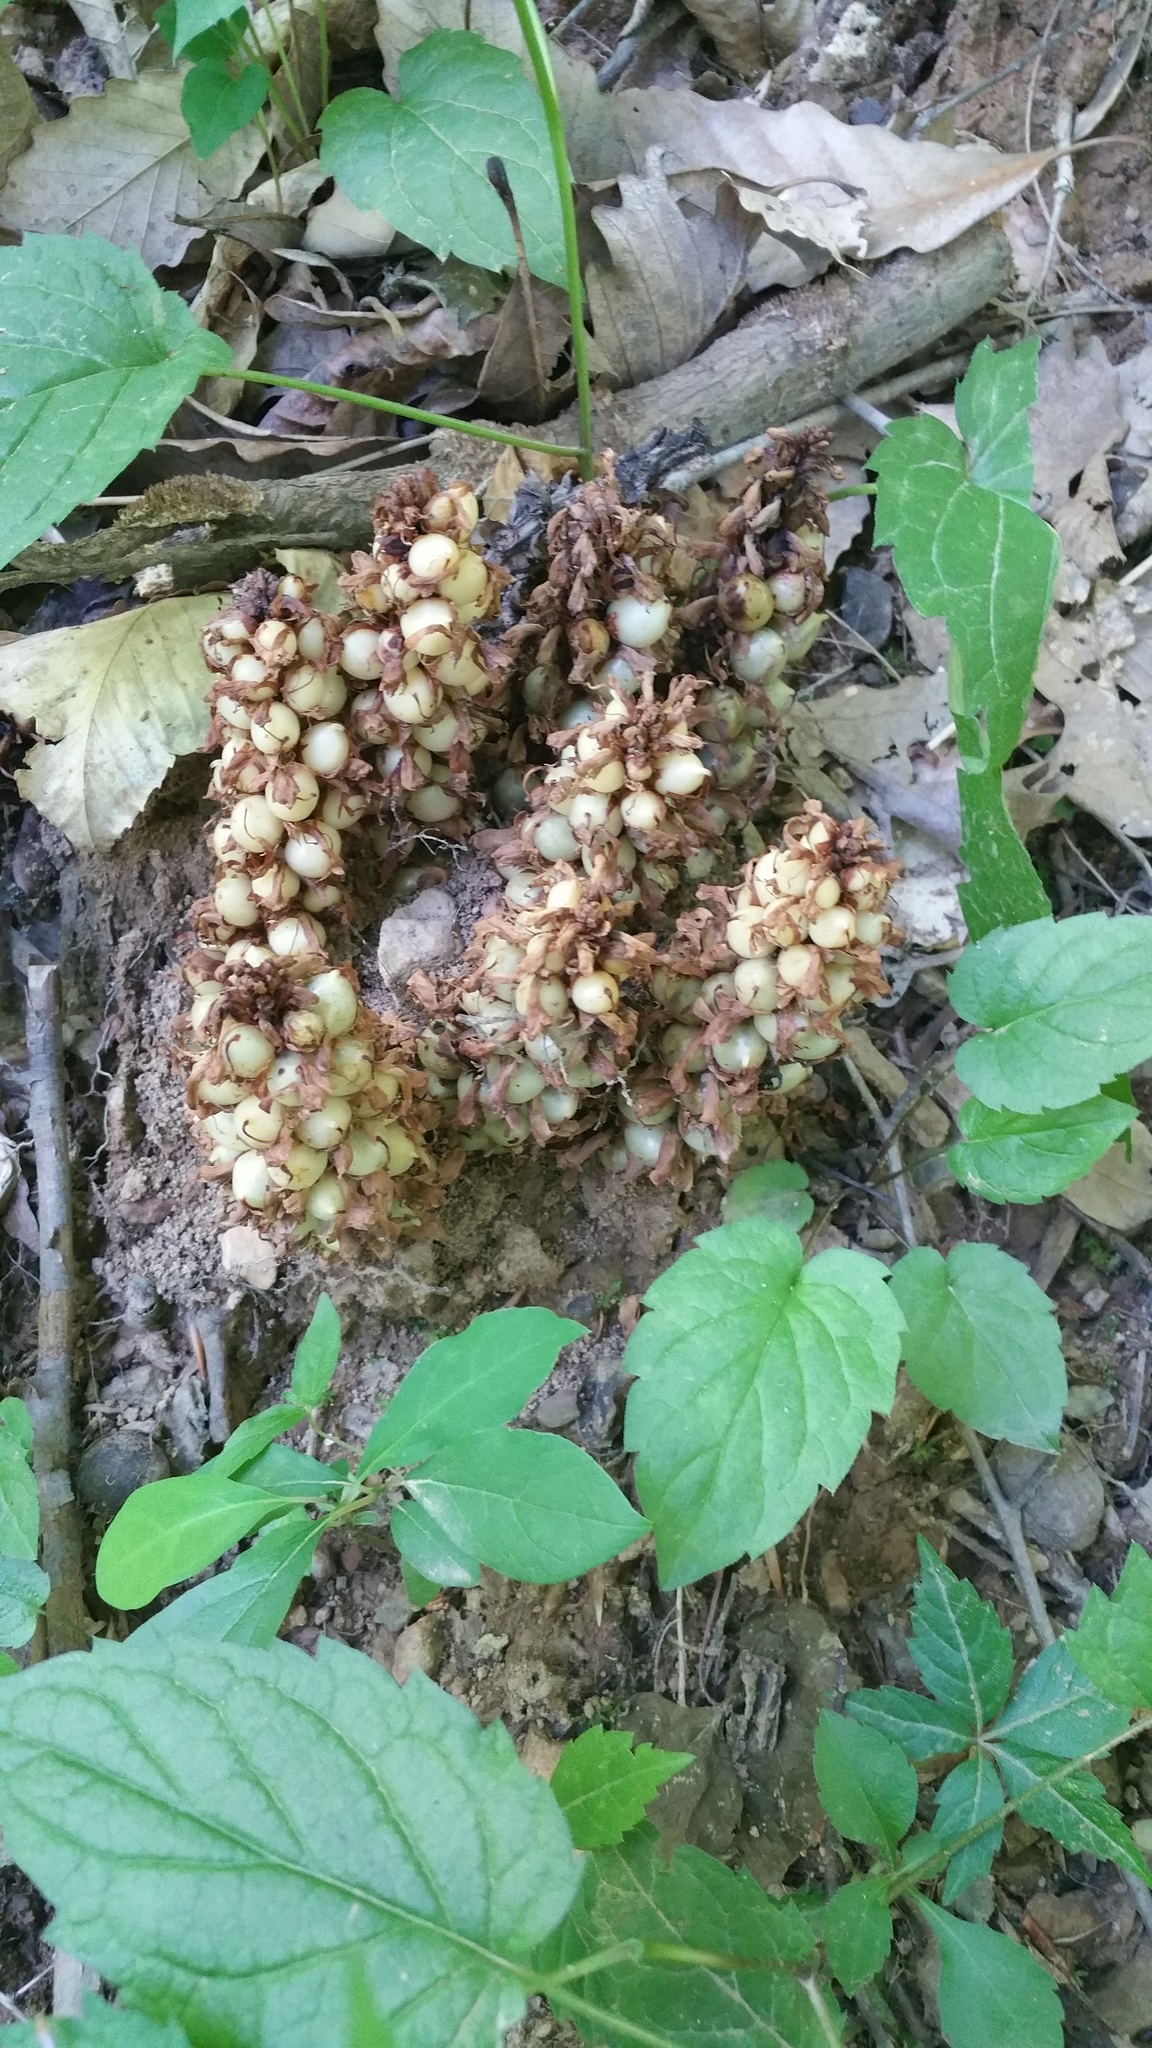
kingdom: Plantae
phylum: Tracheophyta
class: Magnoliopsida
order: Lamiales
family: Orobanchaceae
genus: Conopholis
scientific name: Conopholis americana
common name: American cancer-root
